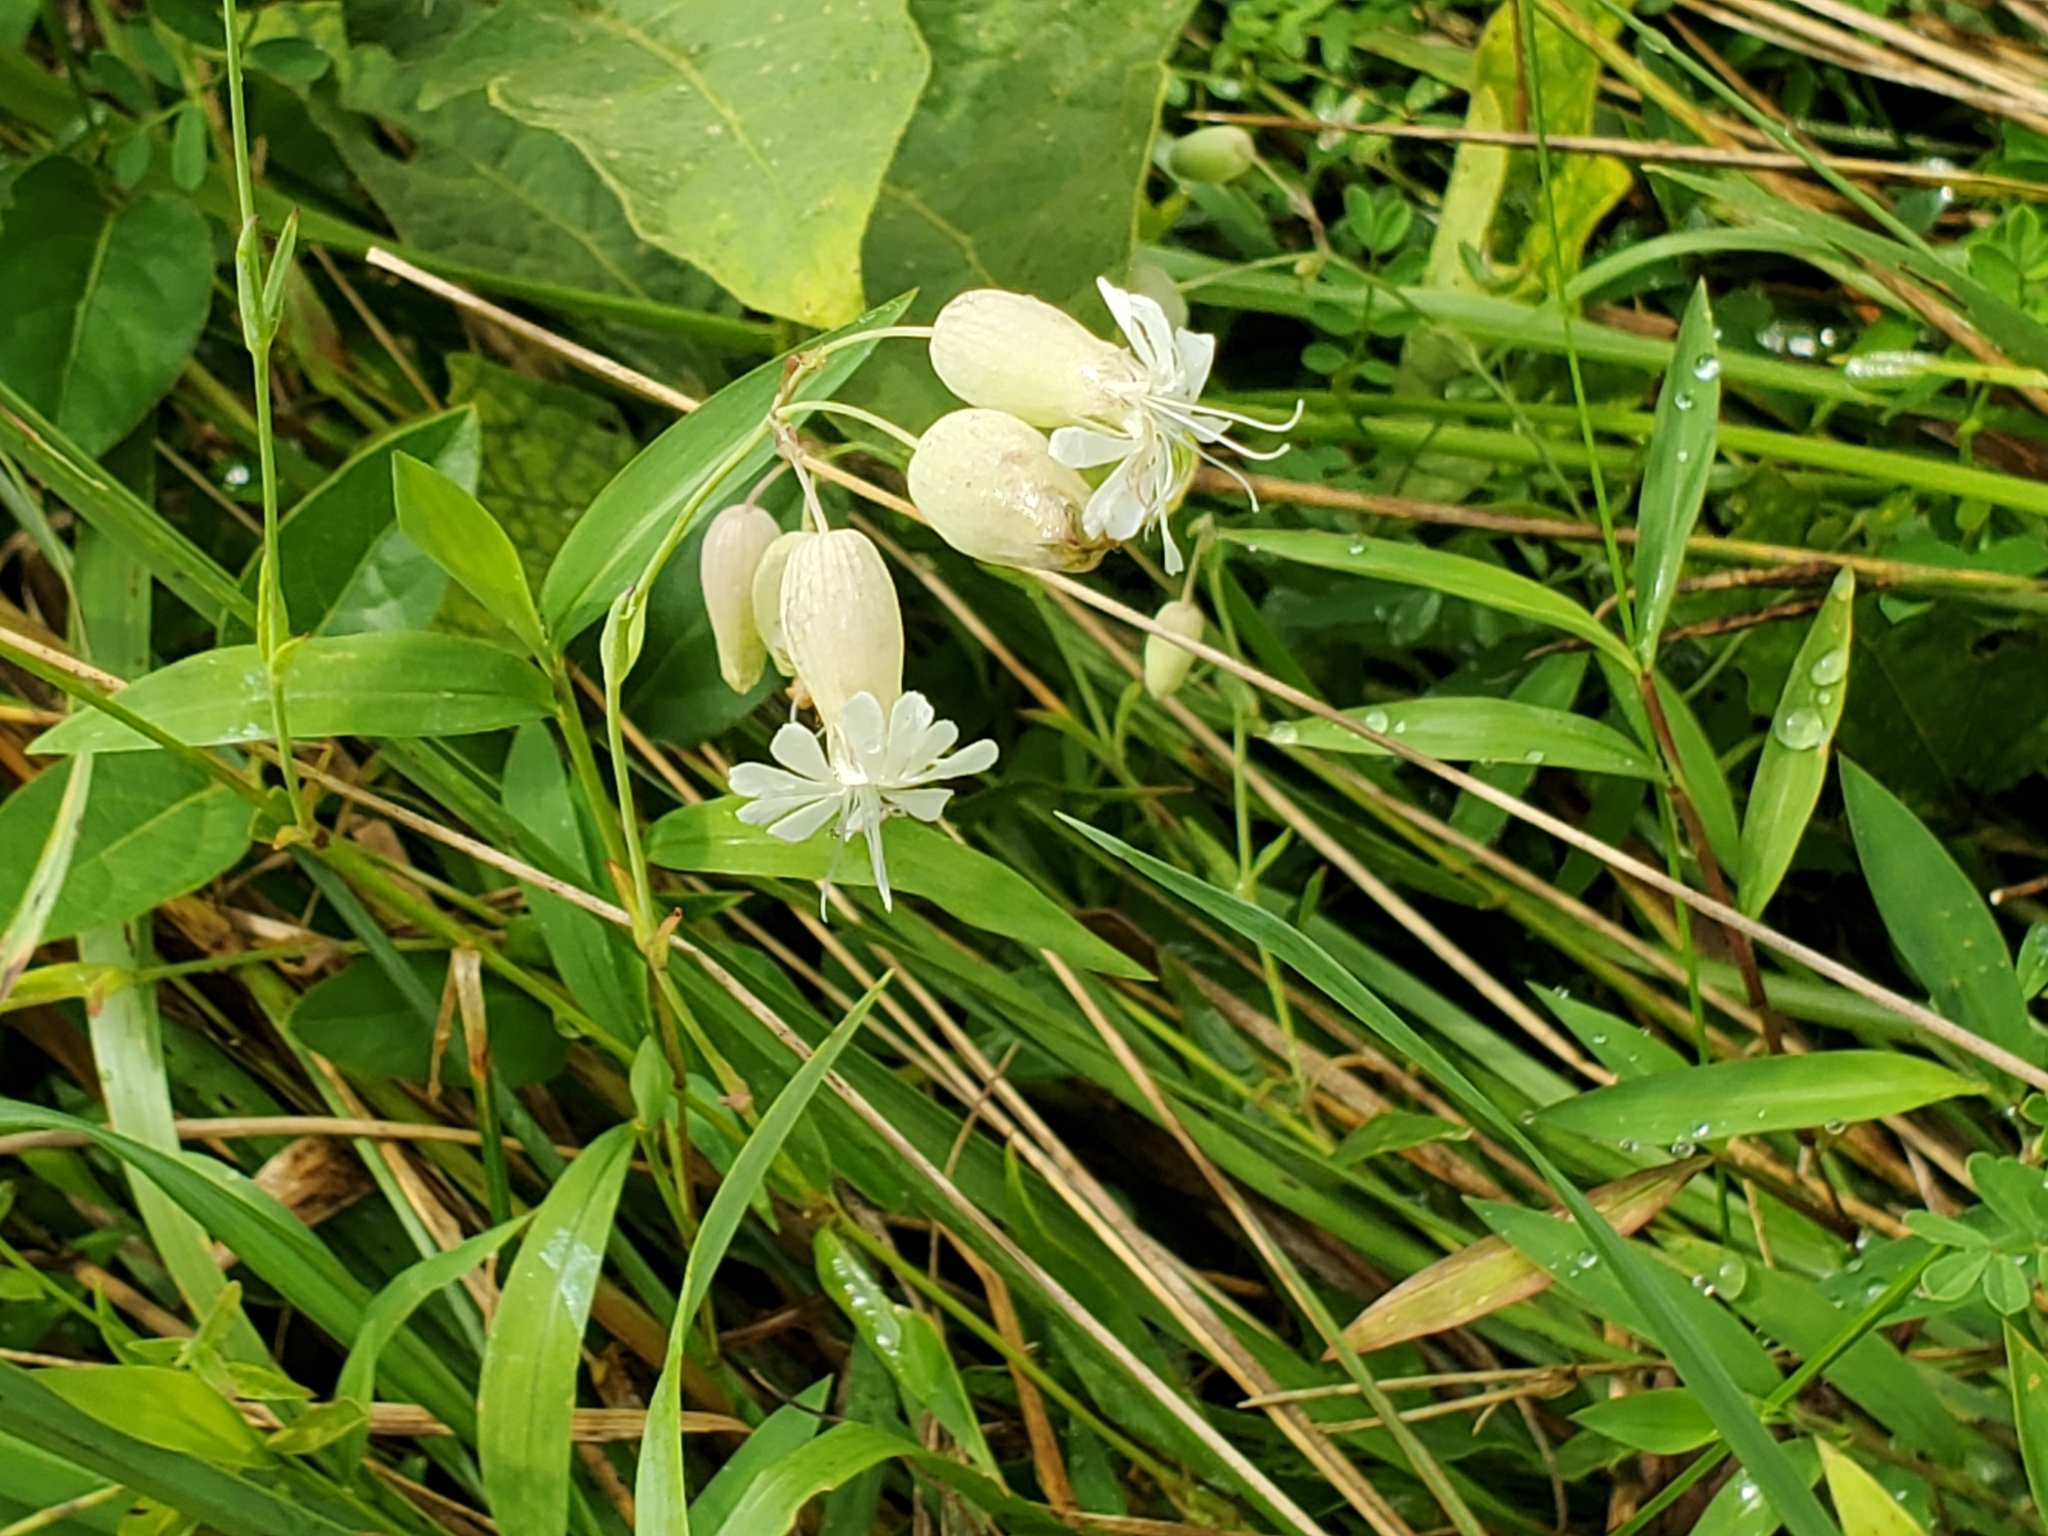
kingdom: Plantae
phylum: Tracheophyta
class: Magnoliopsida
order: Caryophyllales
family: Caryophyllaceae
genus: Silene
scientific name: Silene vulgaris
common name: Bladder campion
